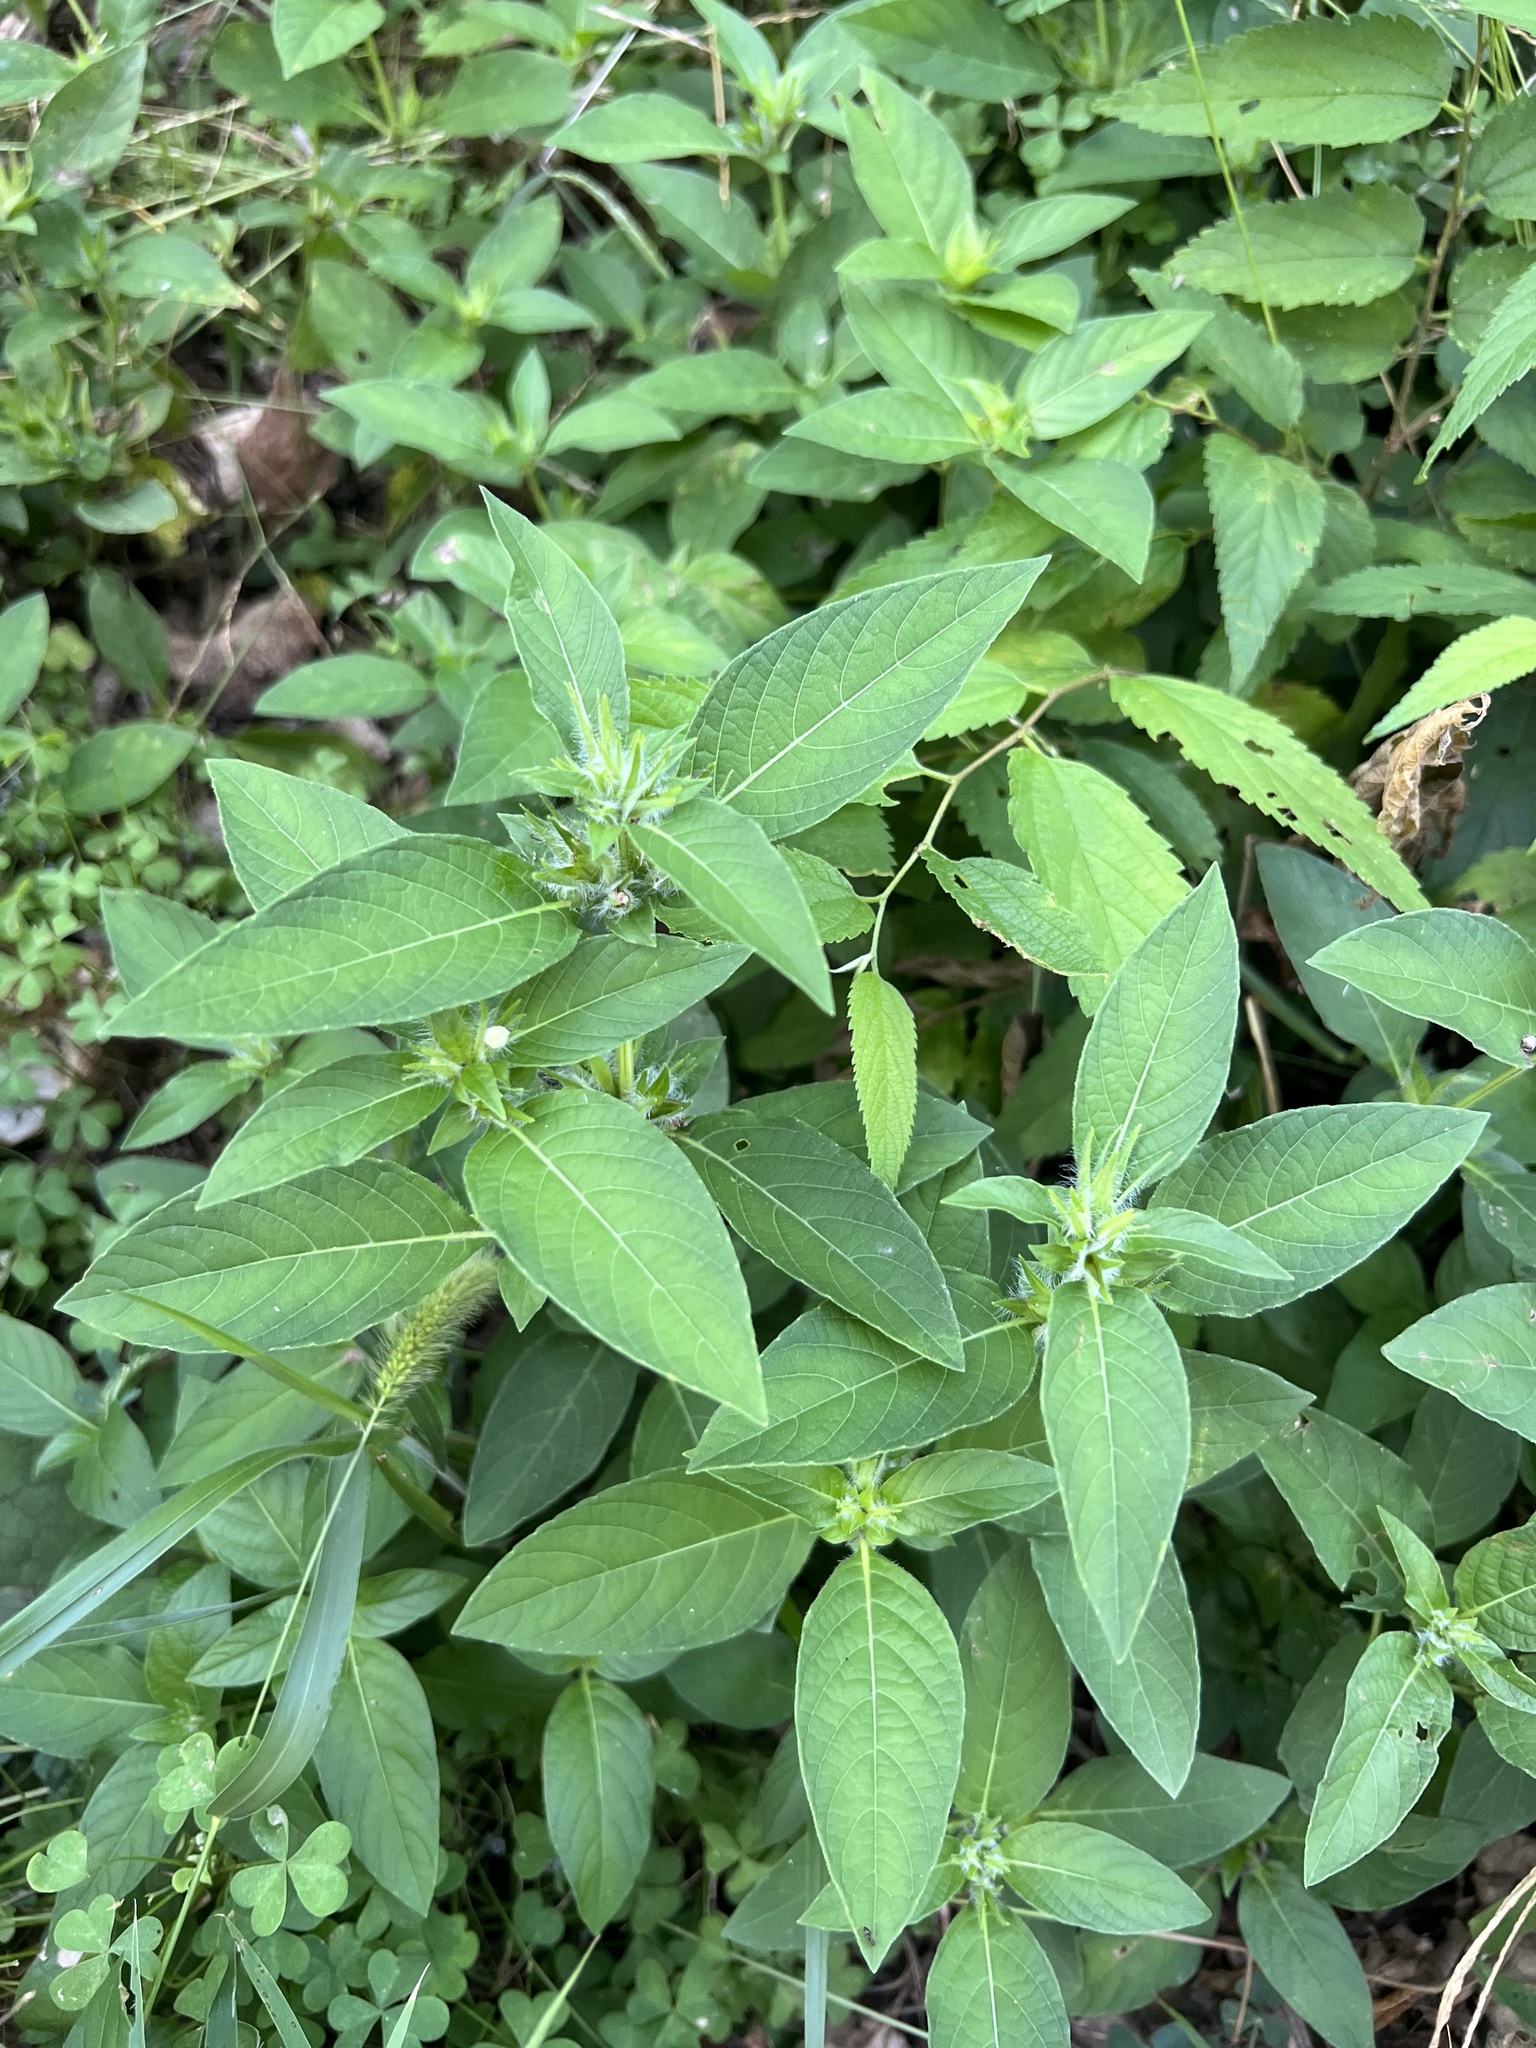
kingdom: Plantae
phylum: Tracheophyta
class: Magnoliopsida
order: Lamiales
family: Acanthaceae
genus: Ruellia
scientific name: Ruellia strepens
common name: Limestone wild petunia
